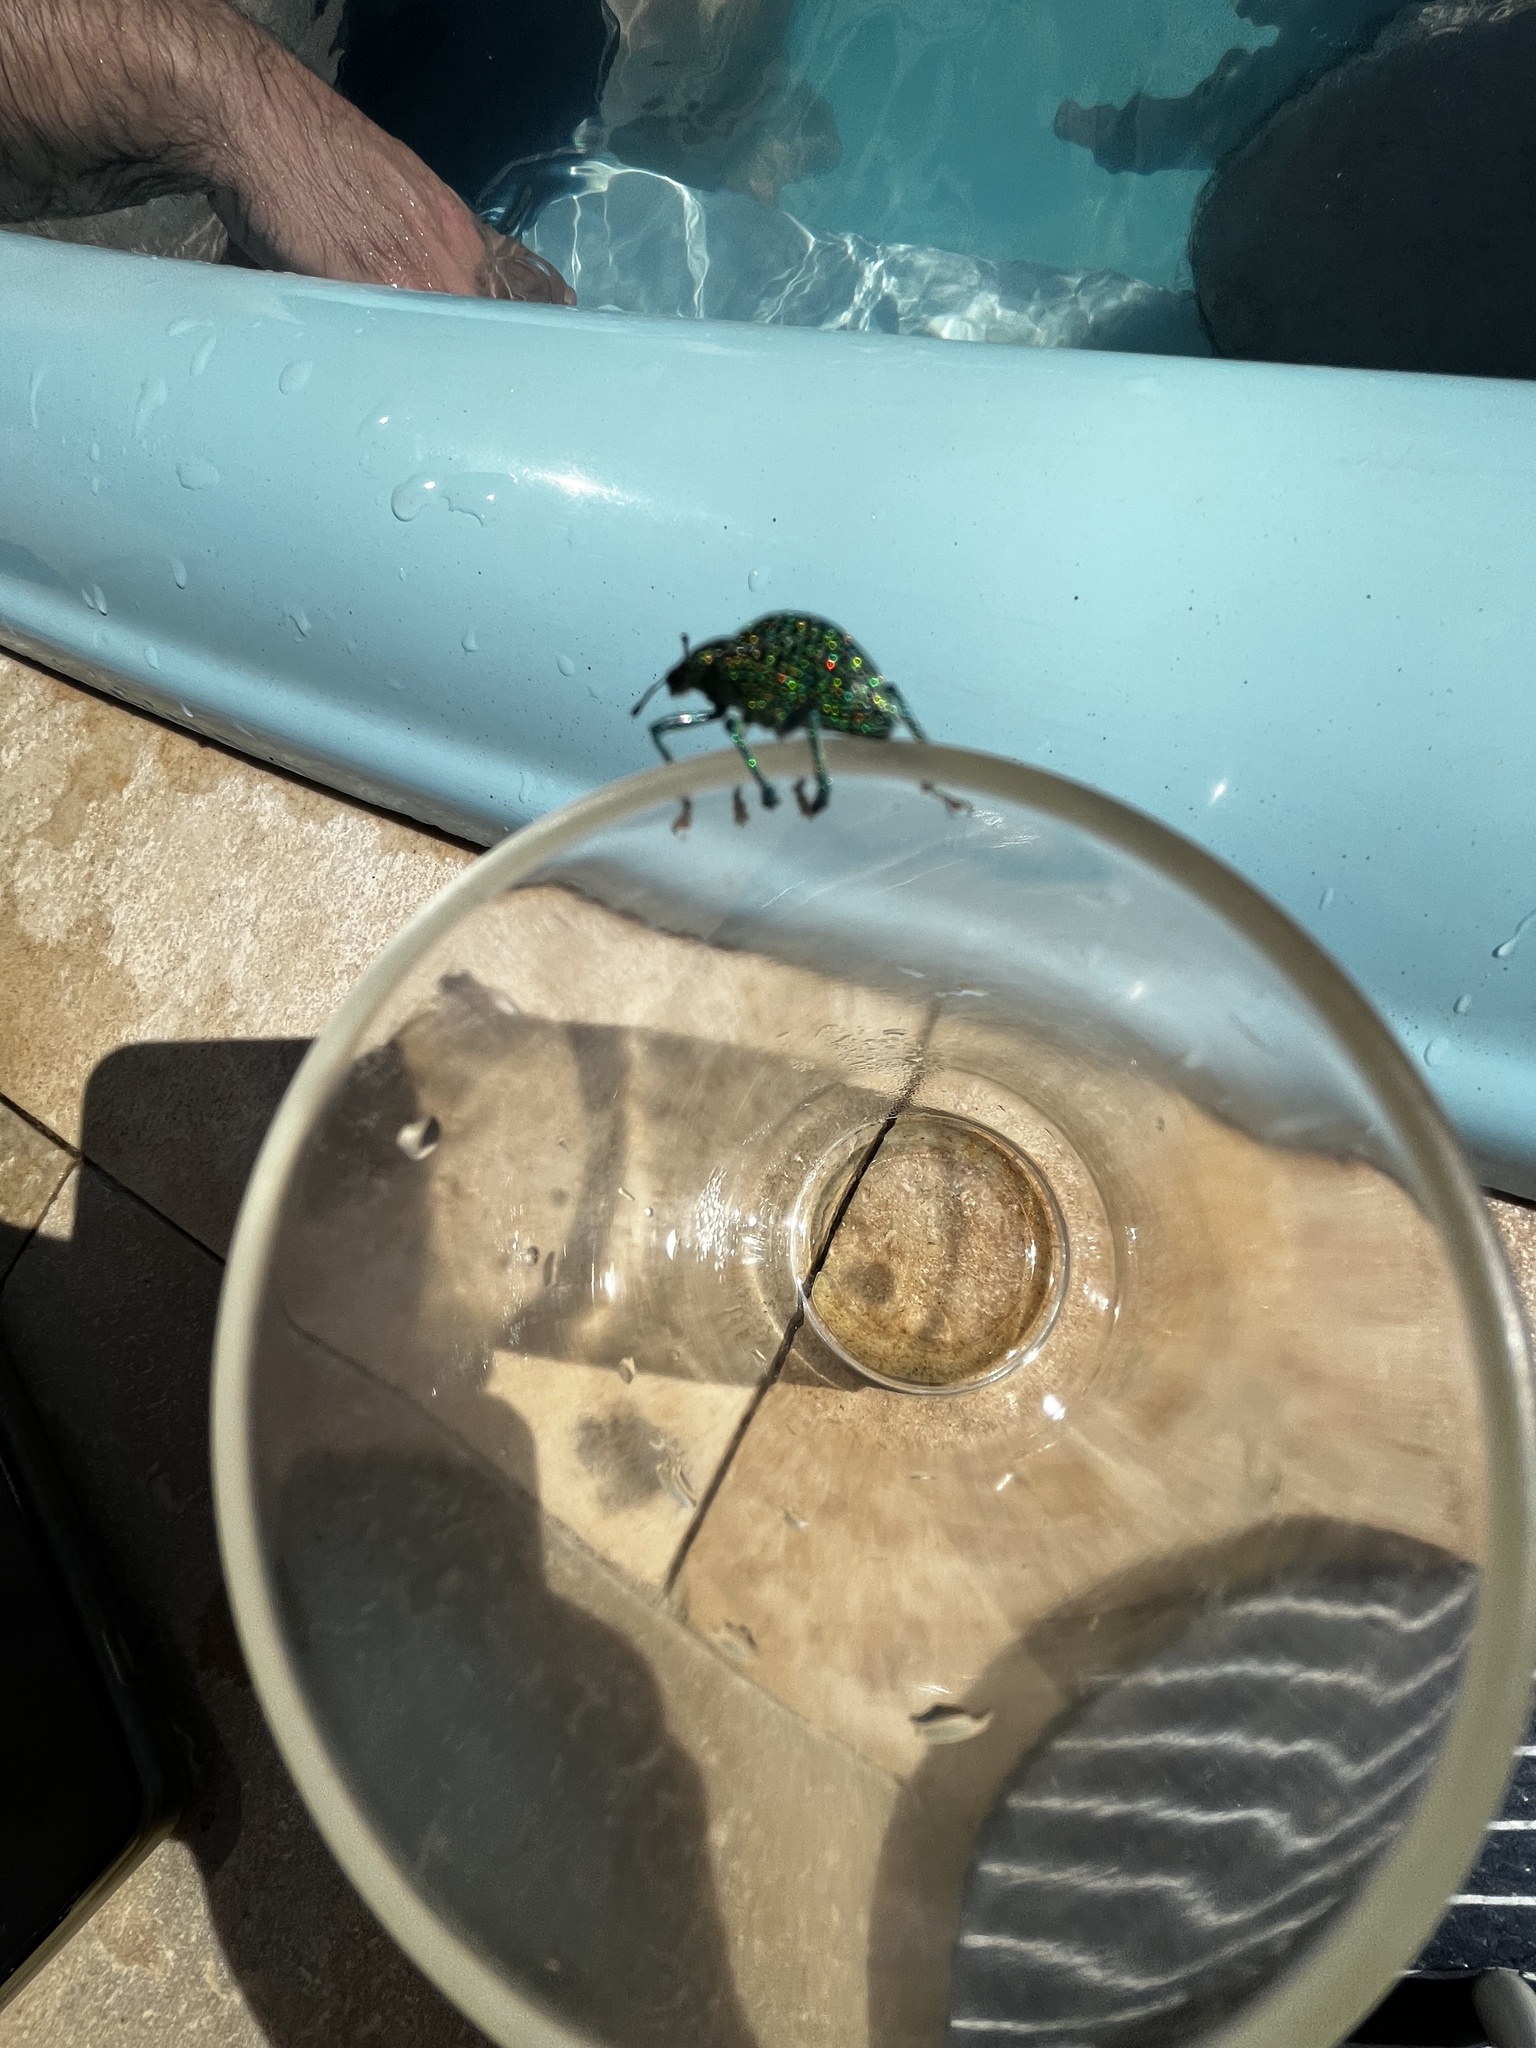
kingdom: Animalia
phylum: Arthropoda
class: Insecta
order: Coleoptera
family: Curculionidae
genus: Entimus
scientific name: Entimus excelsus
